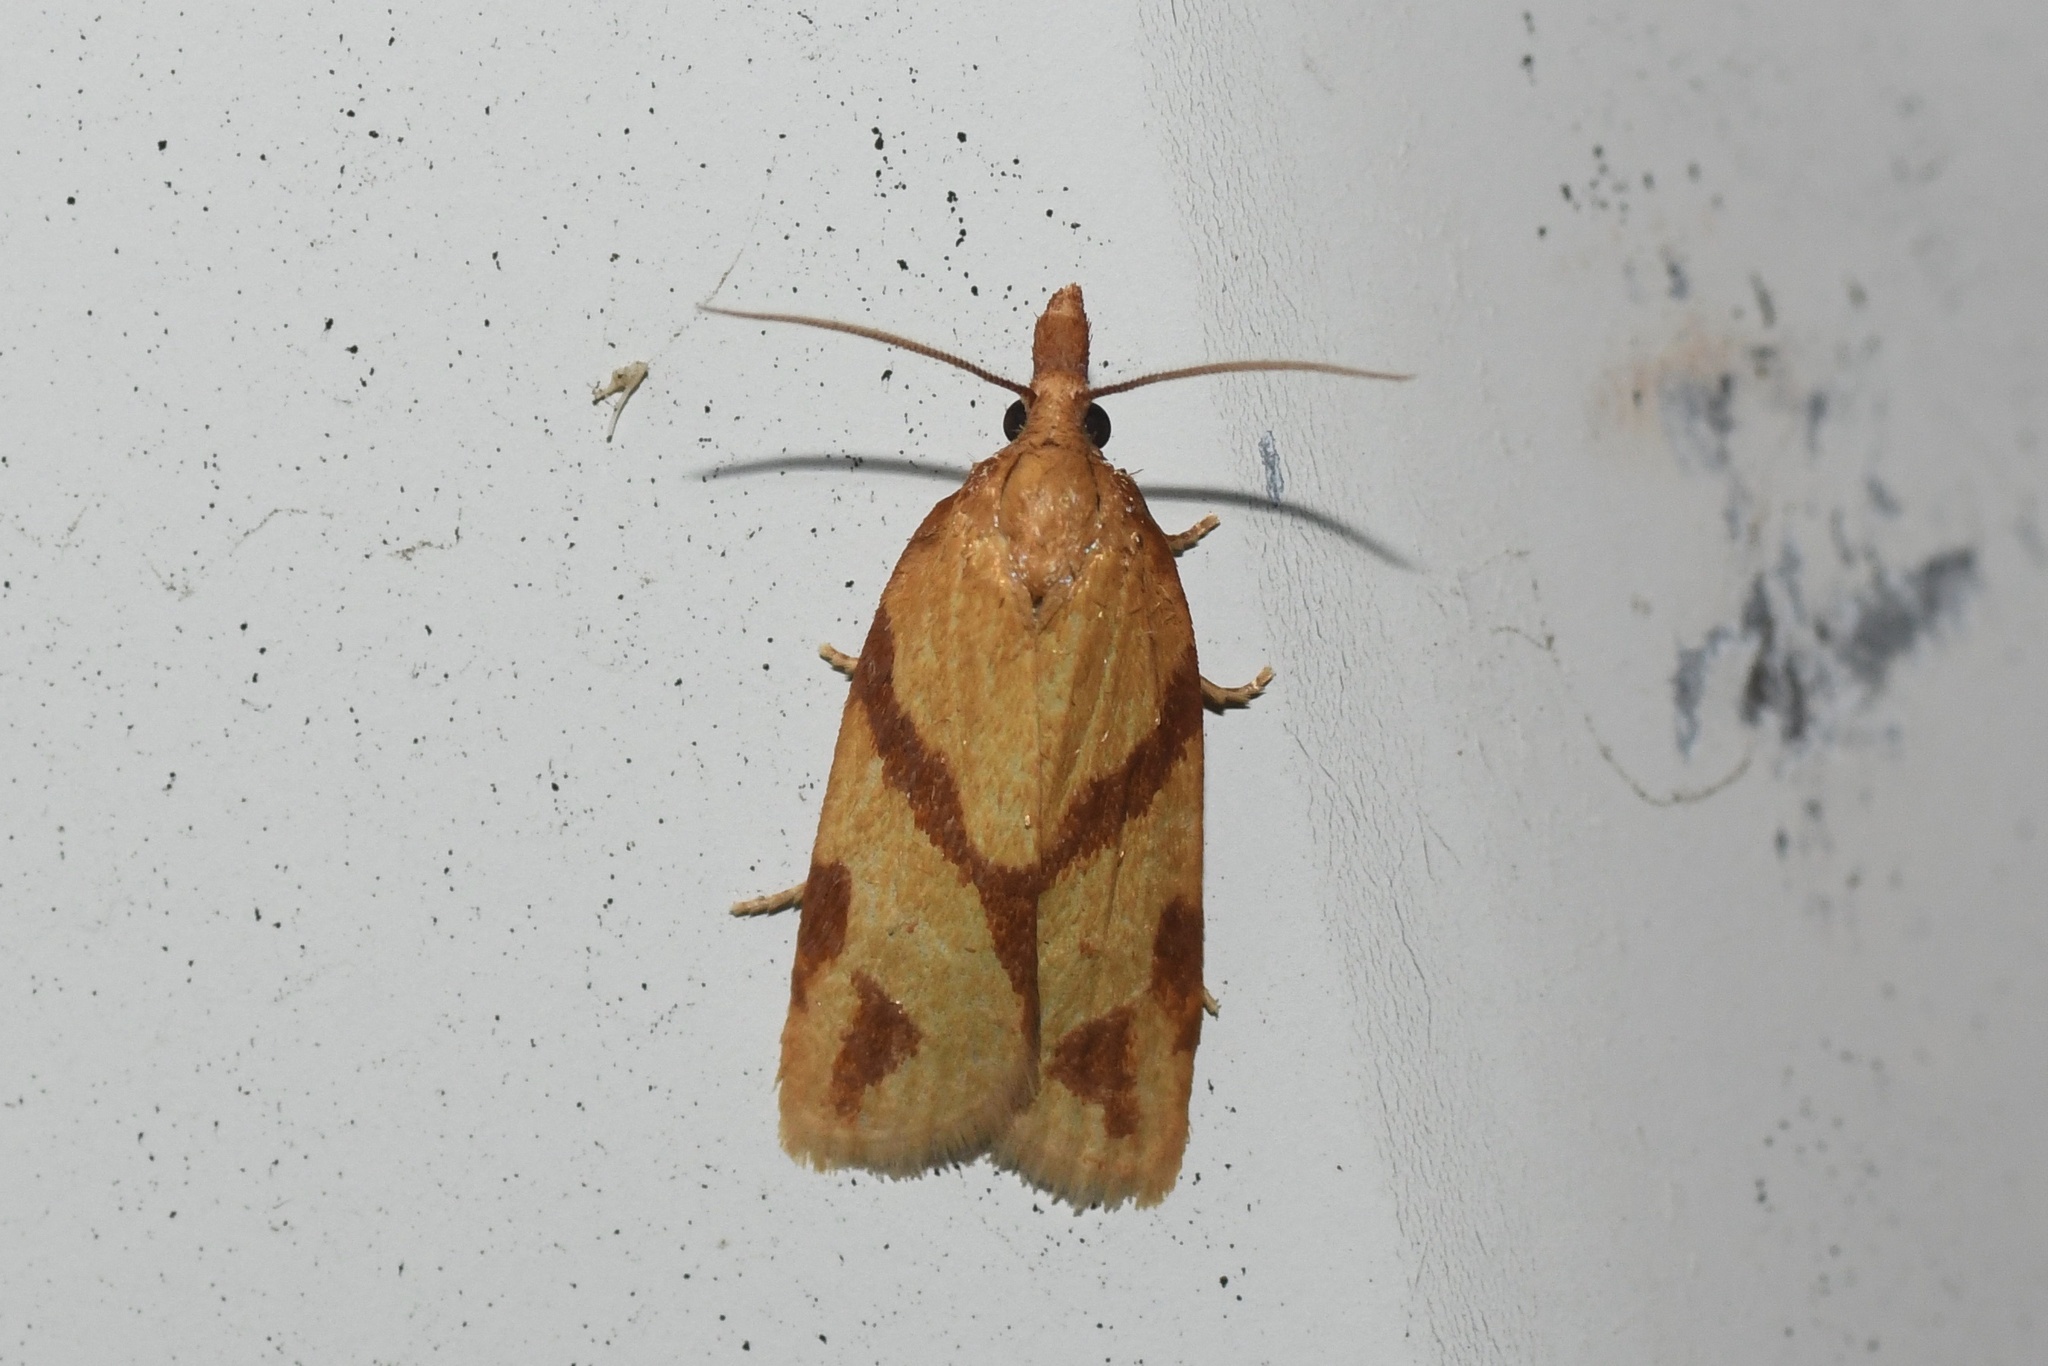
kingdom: Animalia
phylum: Arthropoda
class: Insecta
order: Lepidoptera
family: Tortricidae
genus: Sparganothis
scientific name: Sparganothis unifasciana
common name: One-lined sparganothis moth
